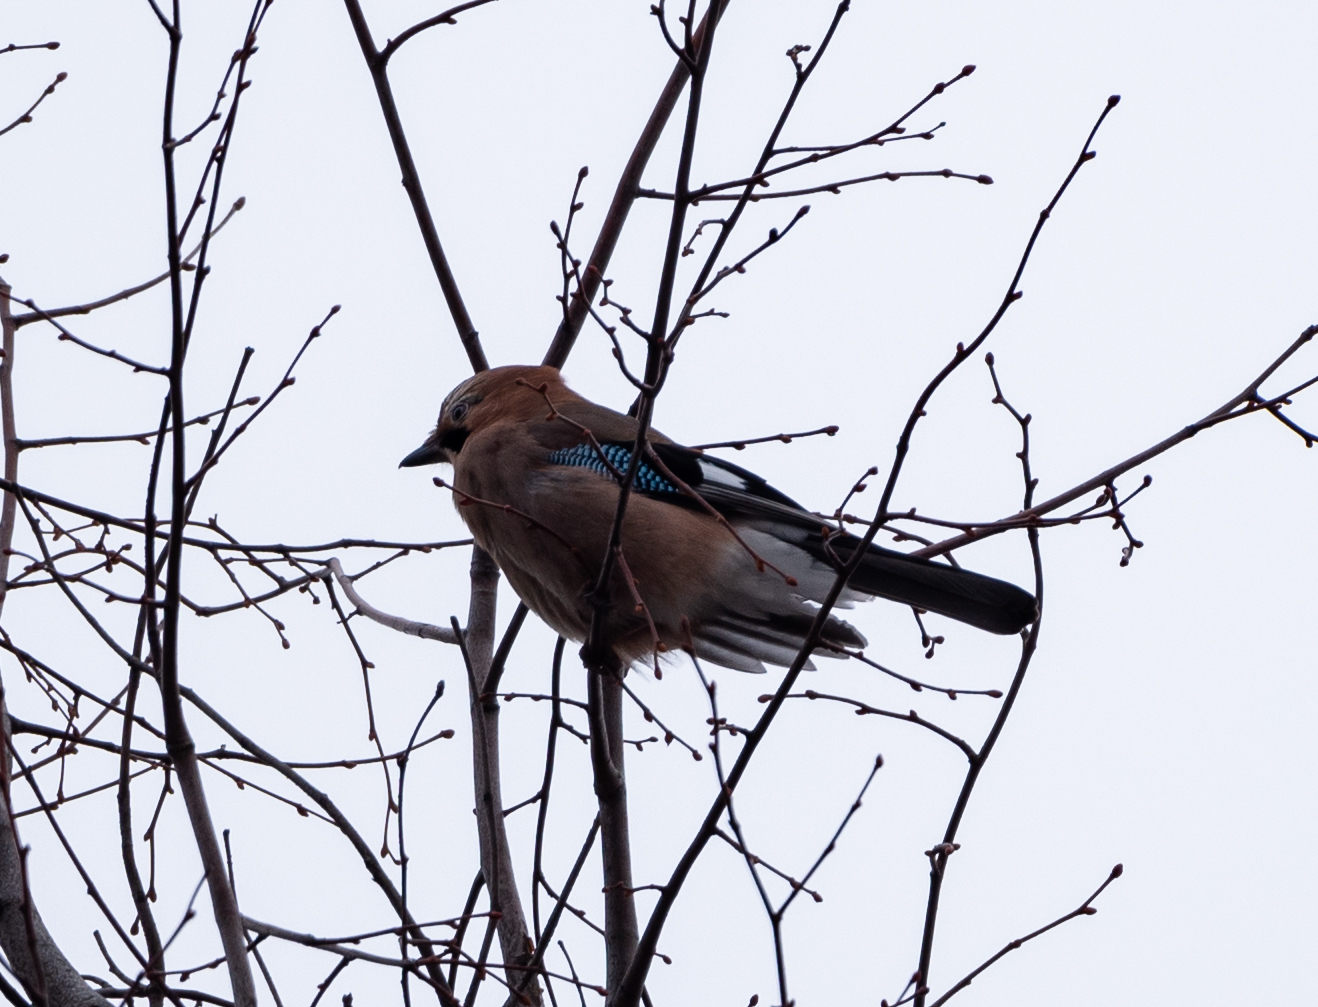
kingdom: Animalia
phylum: Chordata
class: Aves
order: Passeriformes
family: Corvidae
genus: Garrulus
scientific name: Garrulus glandarius
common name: Eurasian jay
